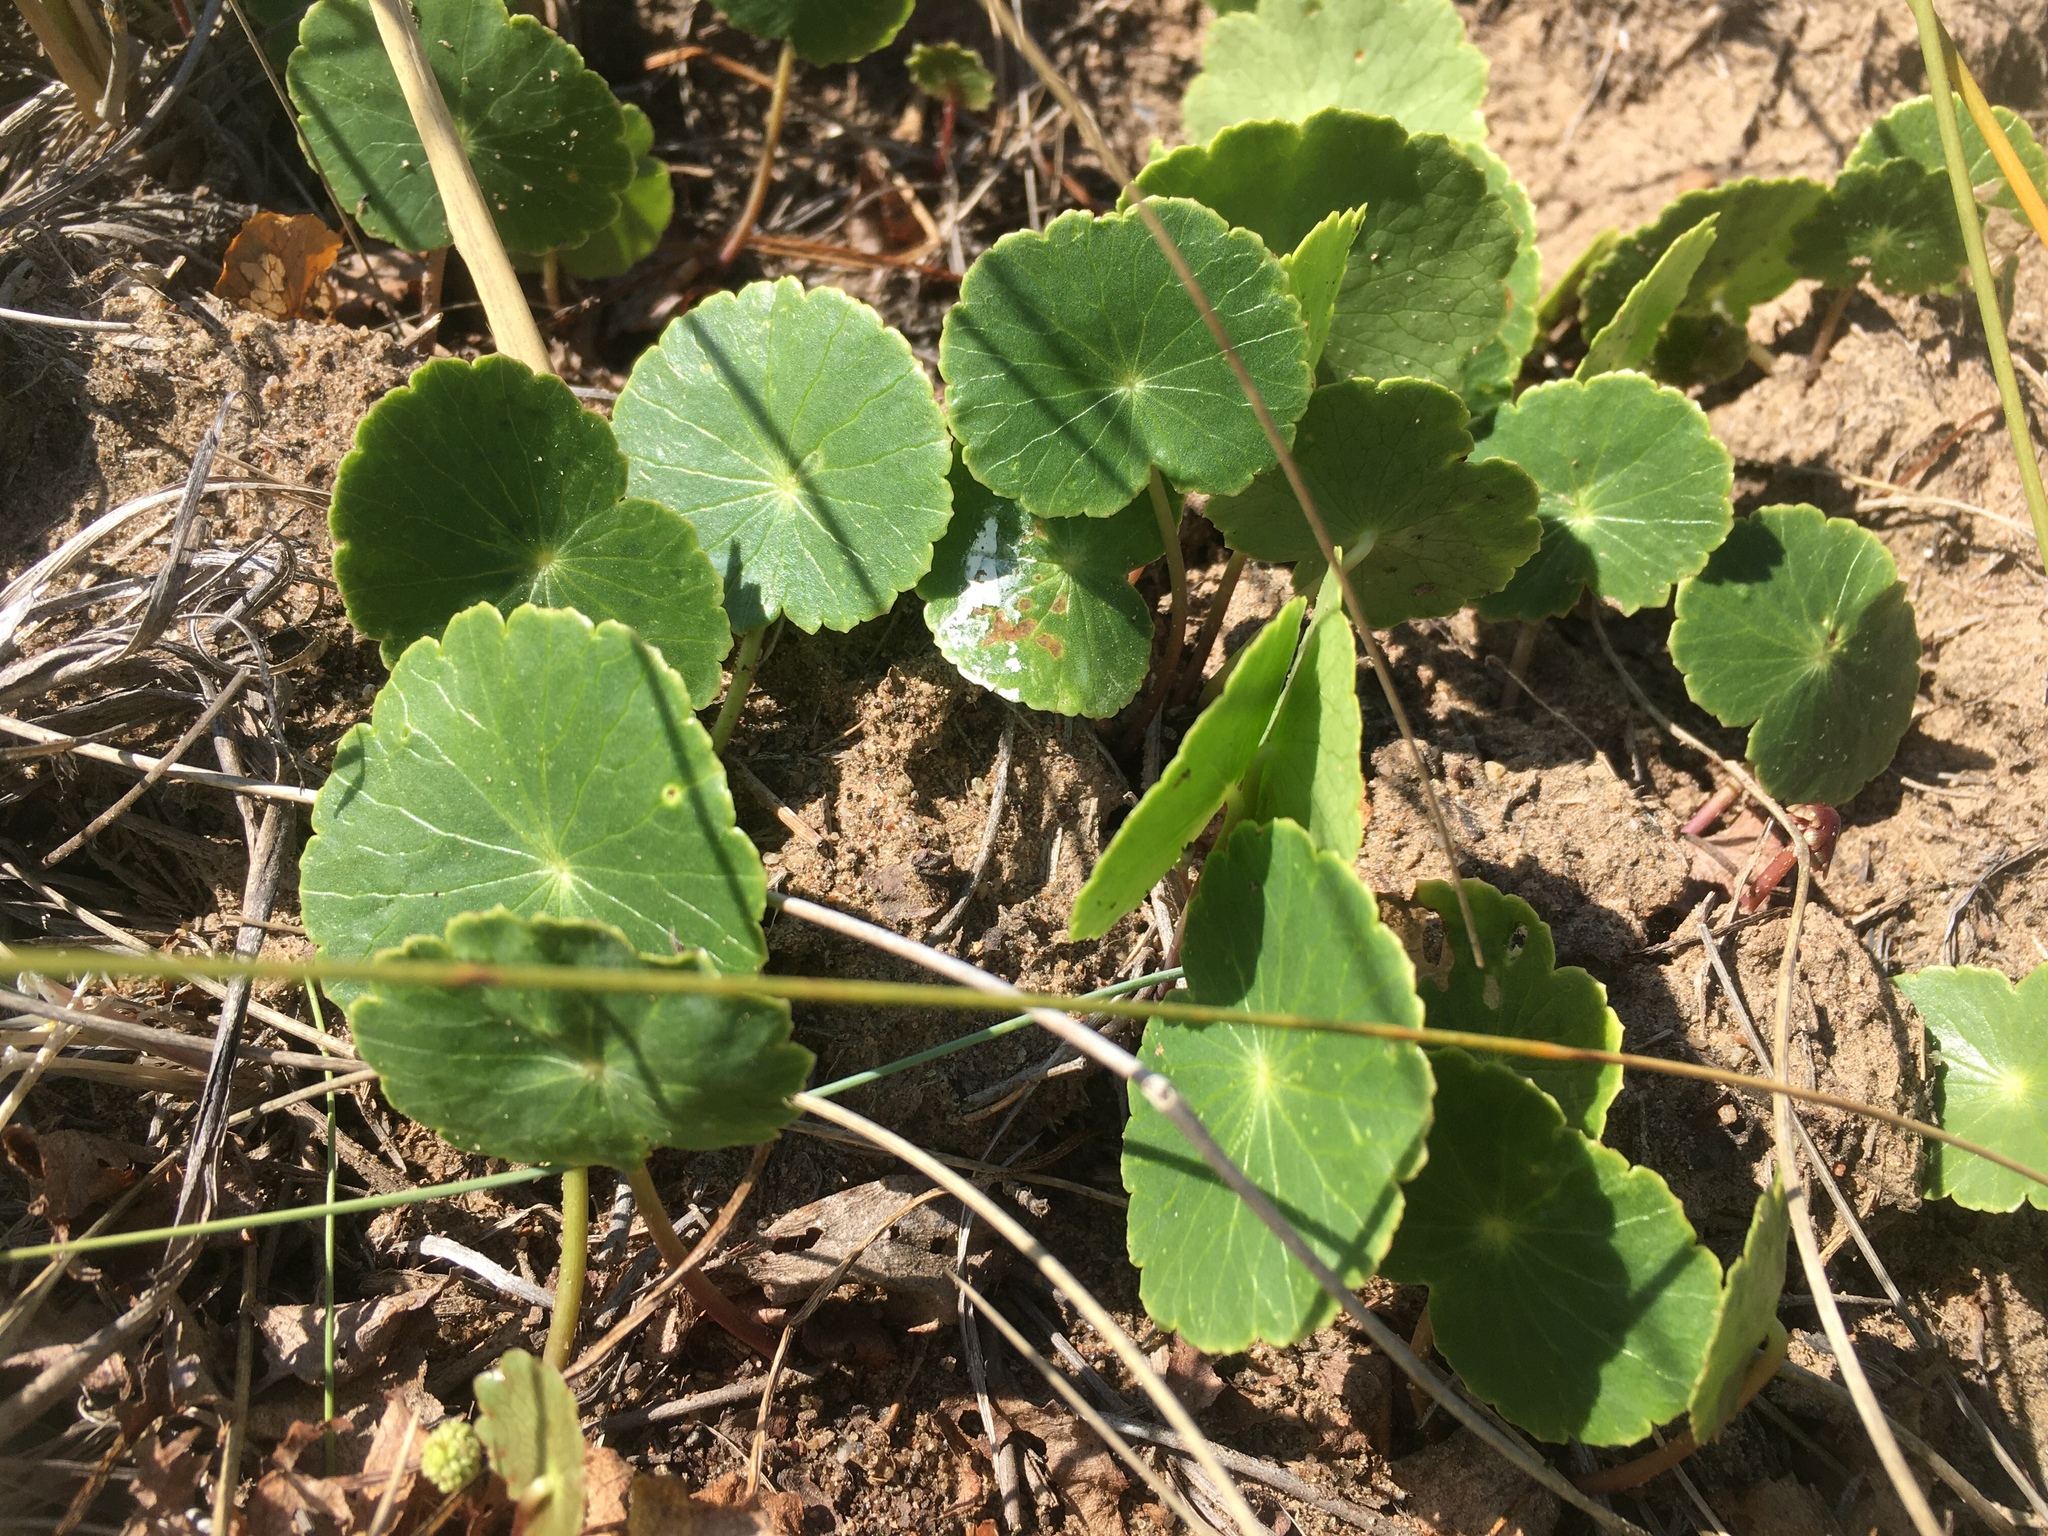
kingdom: Plantae
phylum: Tracheophyta
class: Magnoliopsida
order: Apiales
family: Araliaceae
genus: Hydrocotyle
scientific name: Hydrocotyle bonariensis
